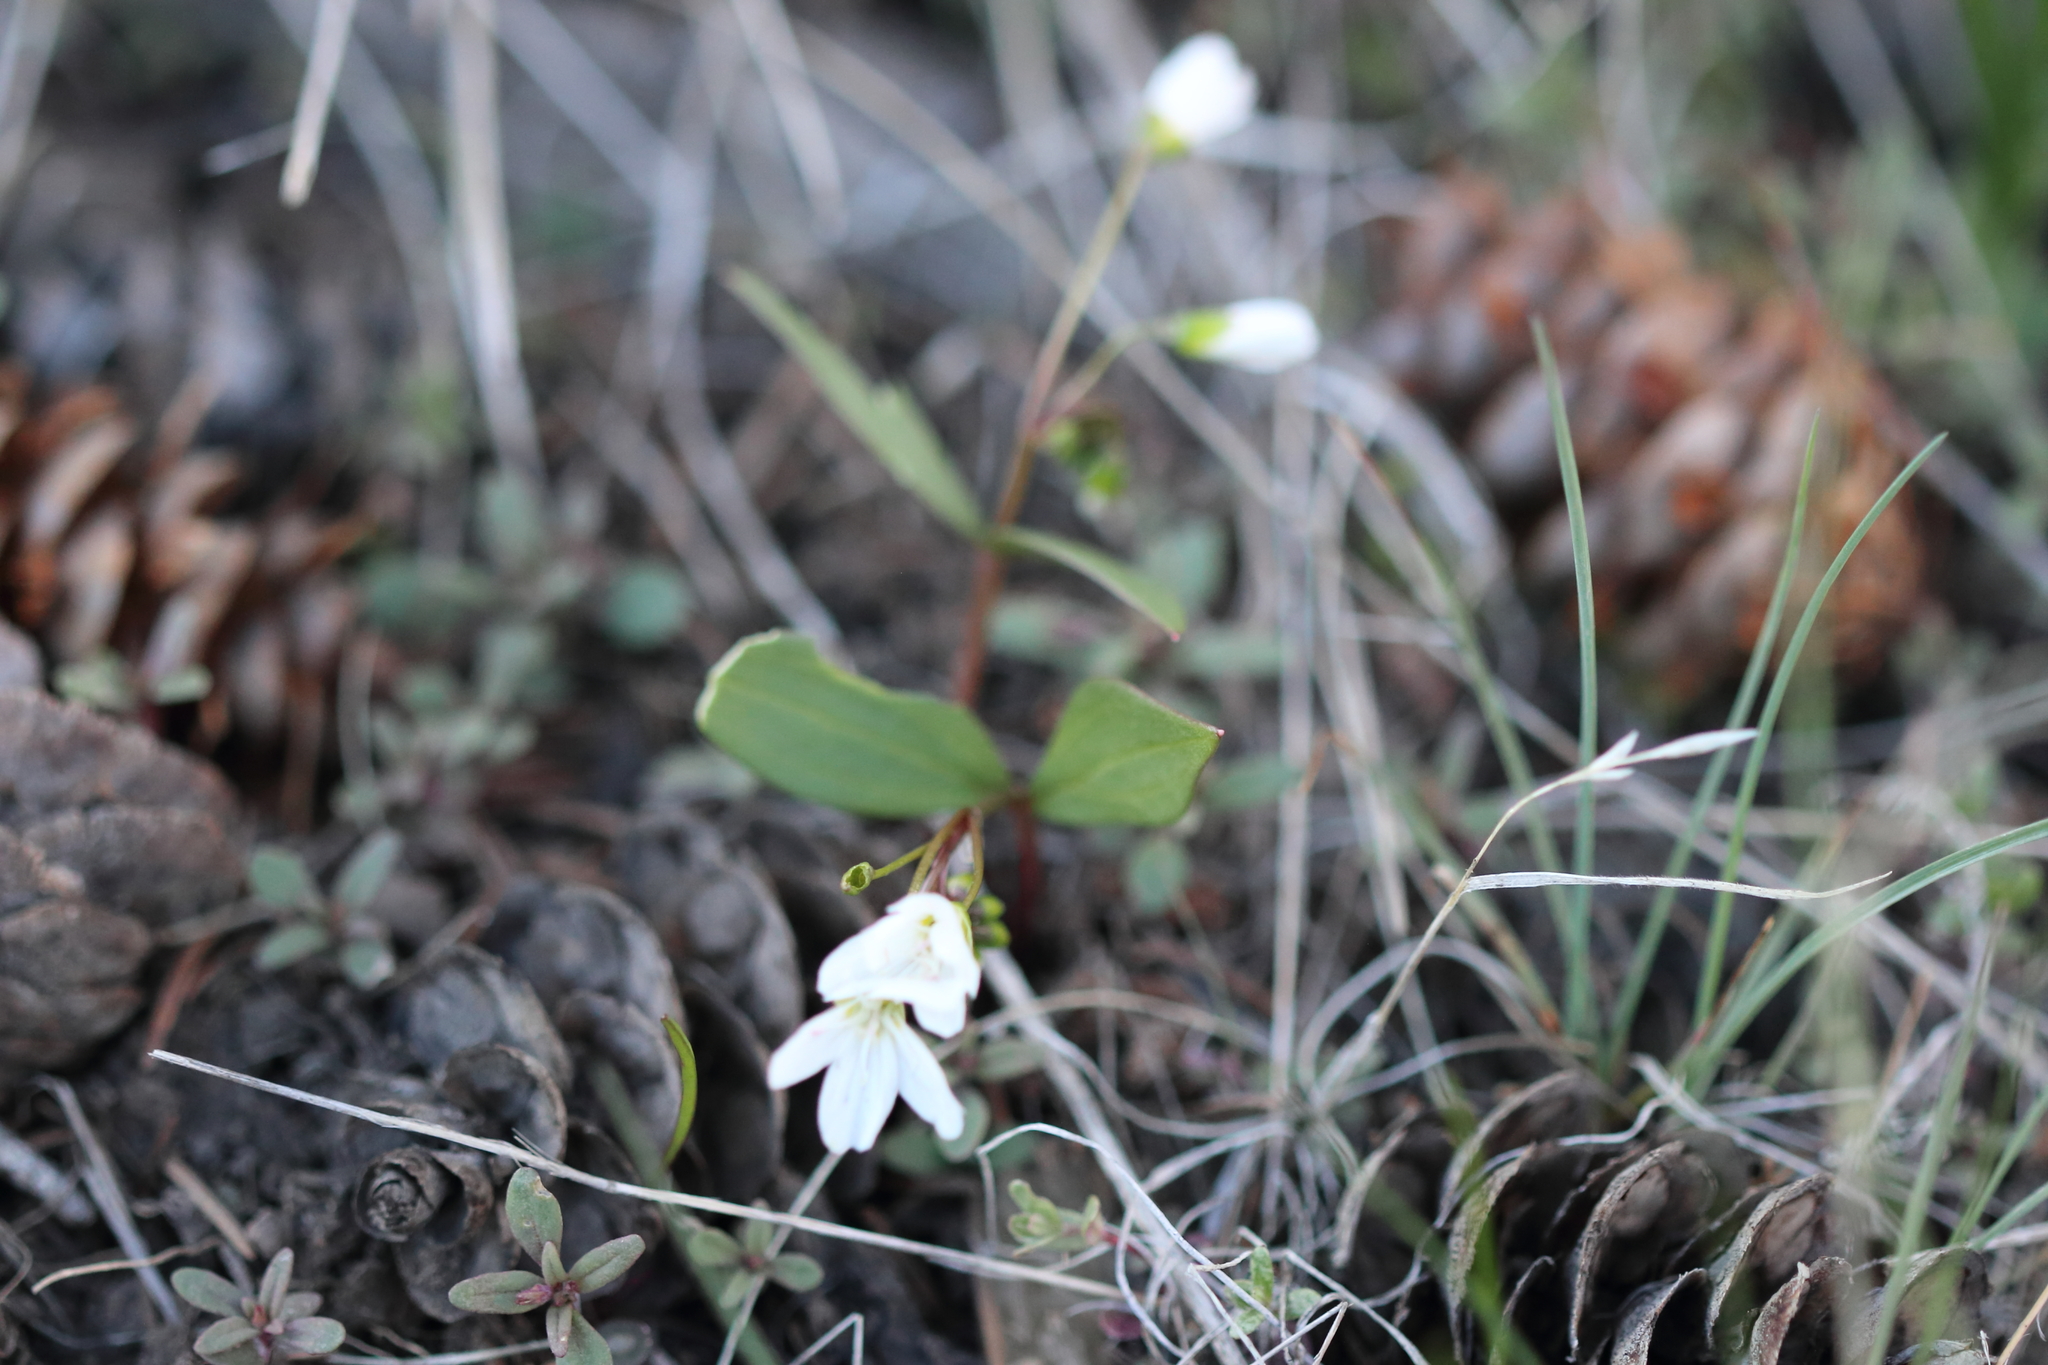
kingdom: Plantae
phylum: Tracheophyta
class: Magnoliopsida
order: Caryophyllales
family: Montiaceae
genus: Claytonia
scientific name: Claytonia lanceolata
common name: Western spring-beauty
